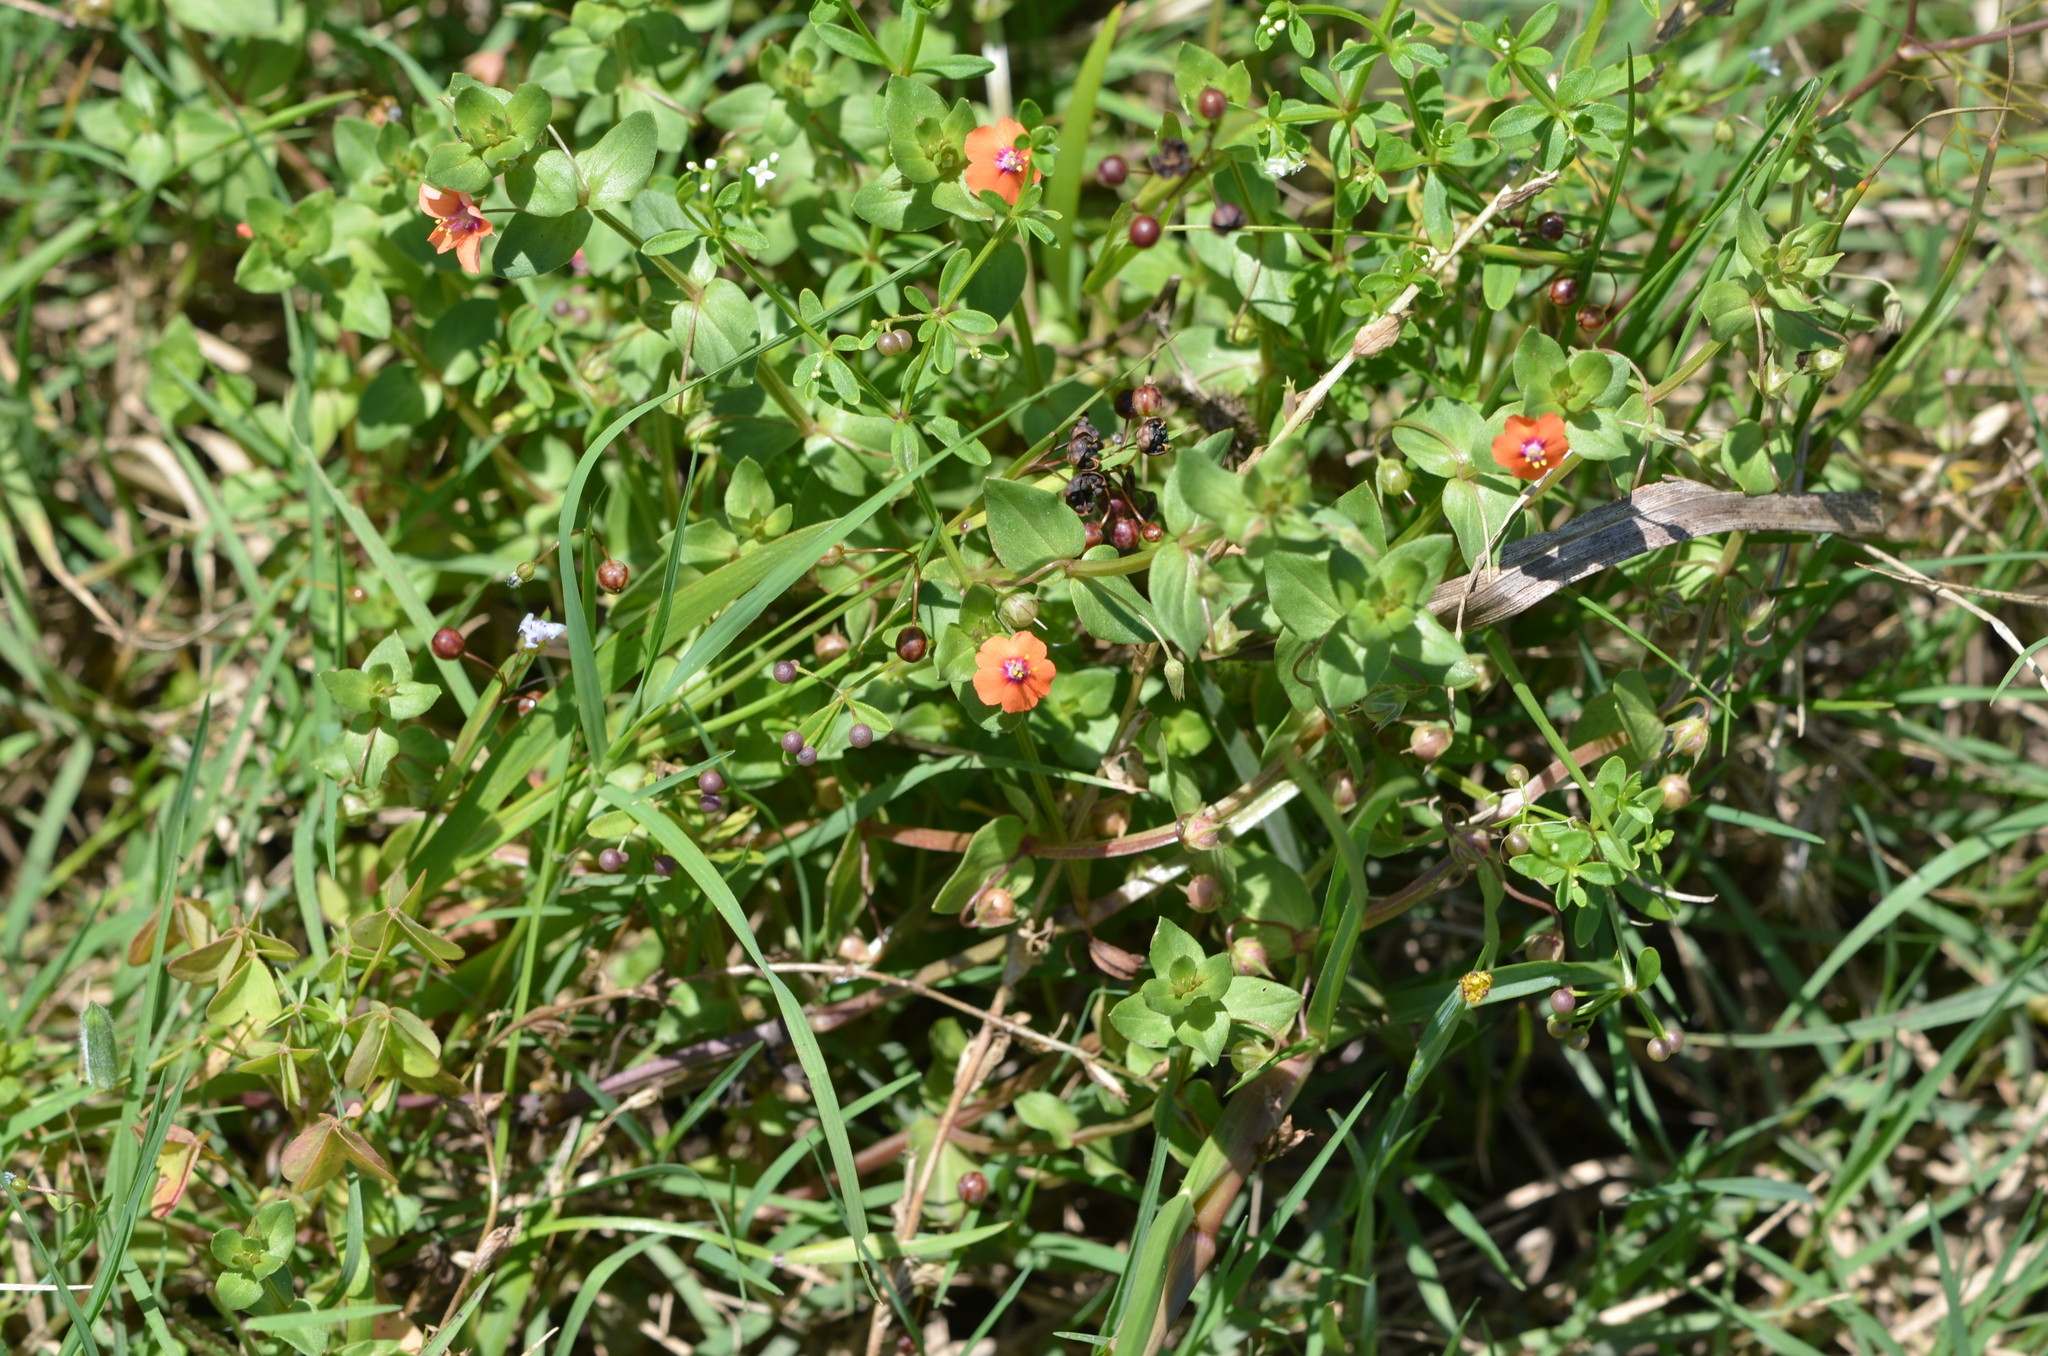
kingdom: Plantae
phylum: Tracheophyta
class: Magnoliopsida
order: Ericales
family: Primulaceae
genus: Lysimachia
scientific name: Lysimachia arvensis
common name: Scarlet pimpernel
